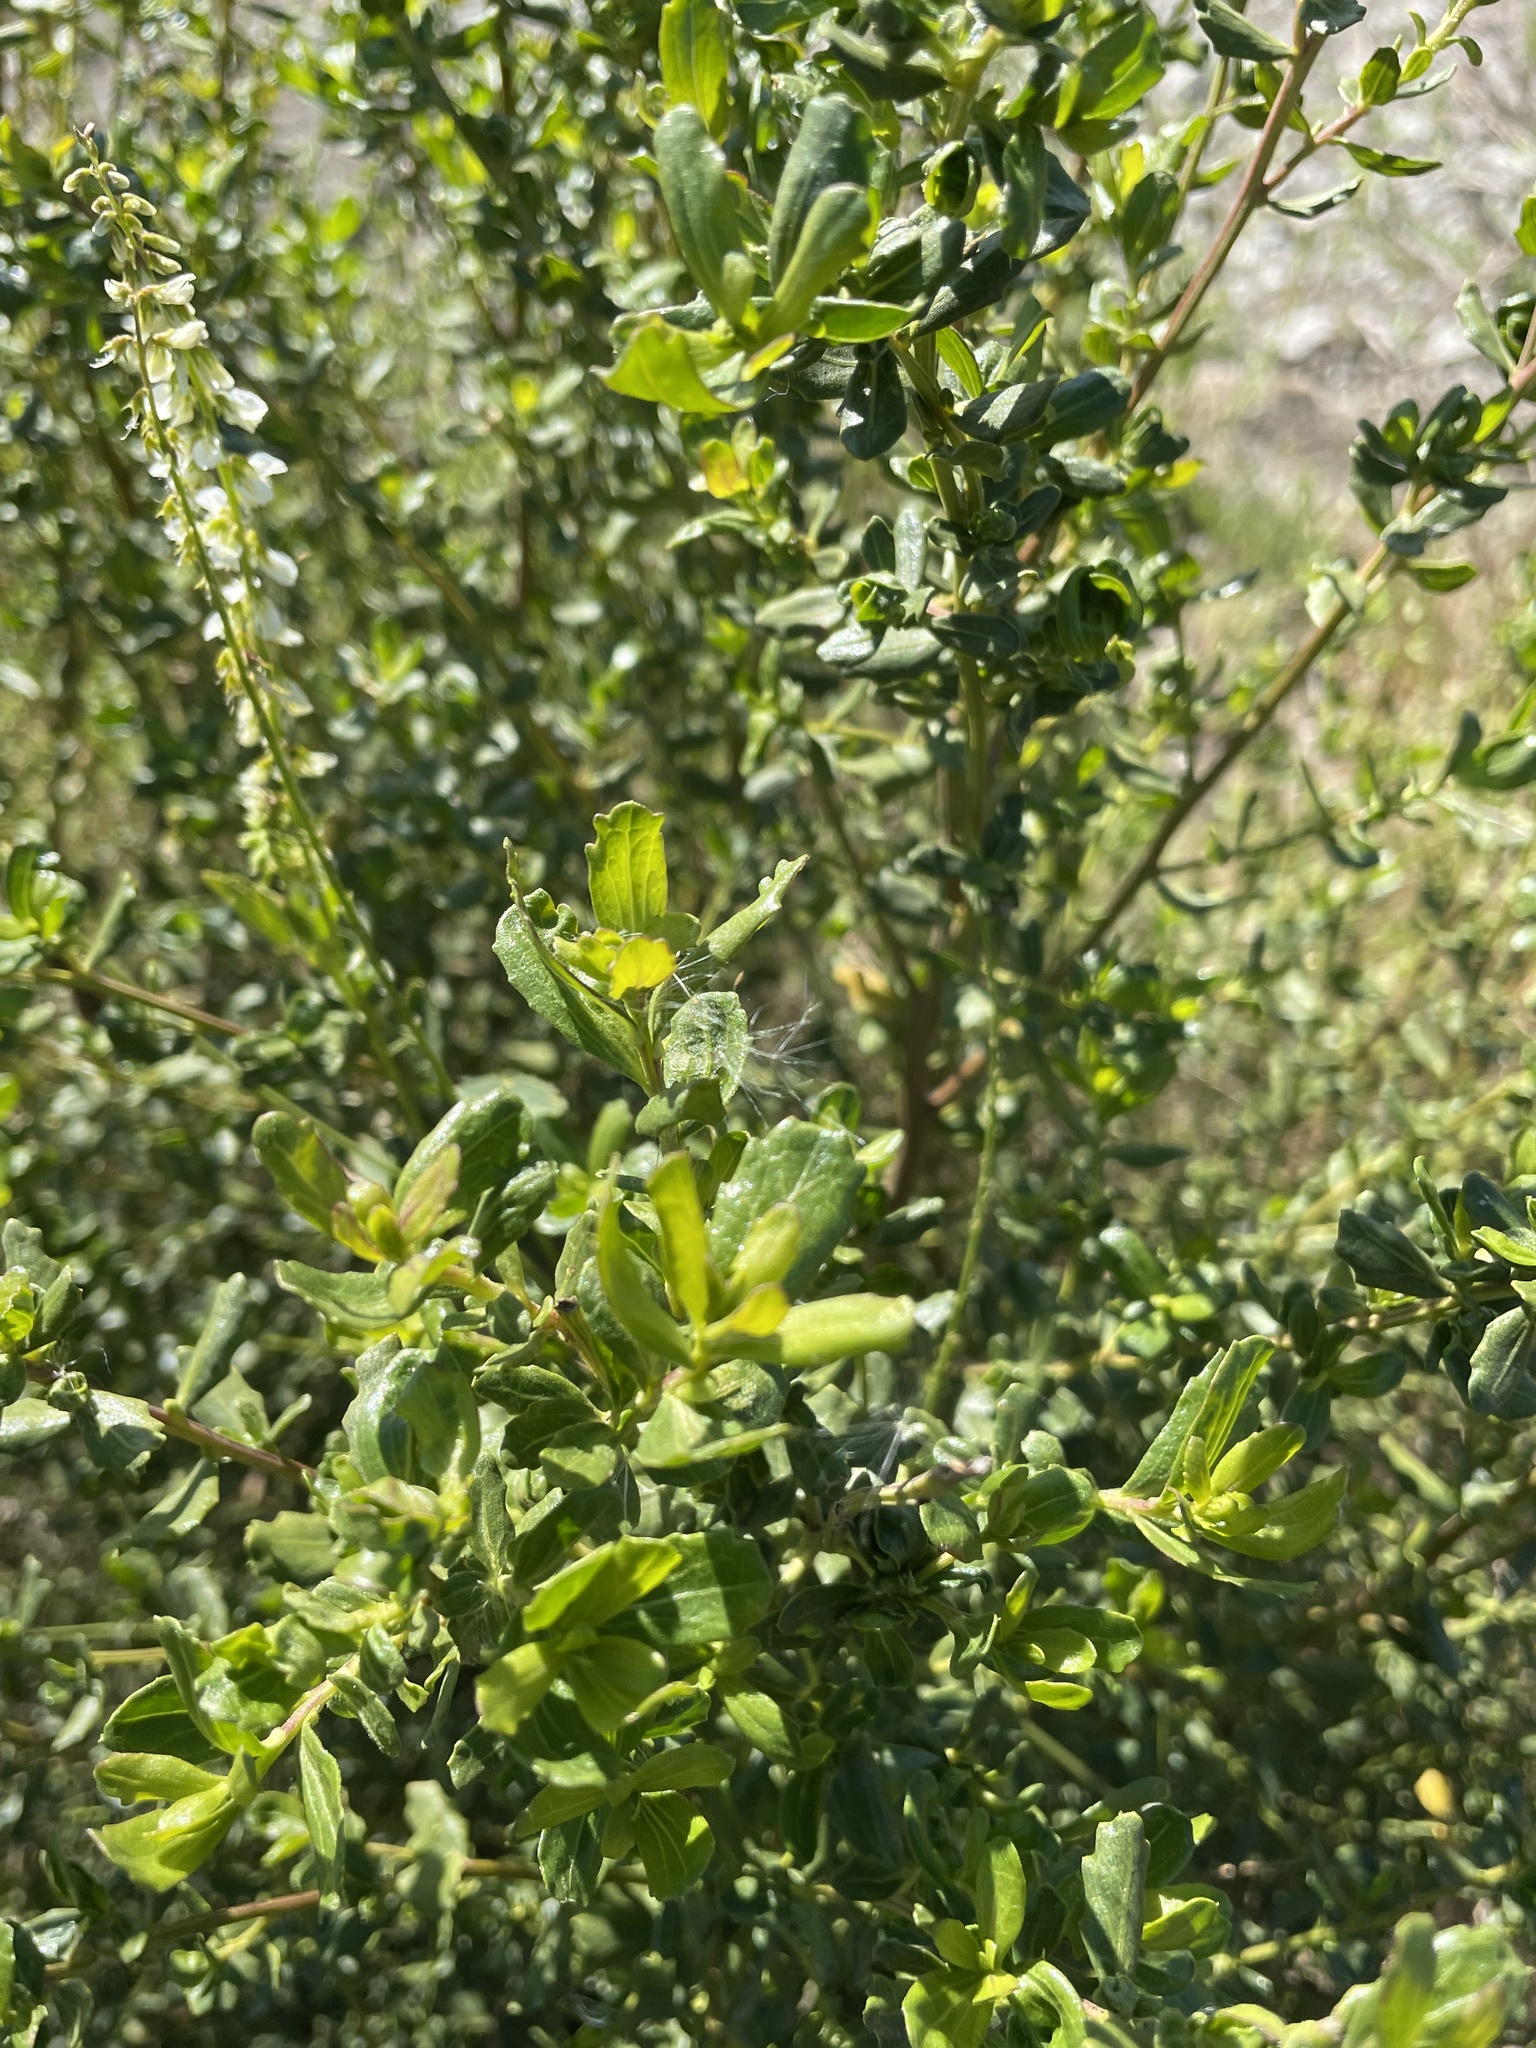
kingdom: Plantae
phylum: Tracheophyta
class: Magnoliopsida
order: Asterales
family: Asteraceae
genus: Baccharis
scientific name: Baccharis pilularis
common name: Coyotebrush
